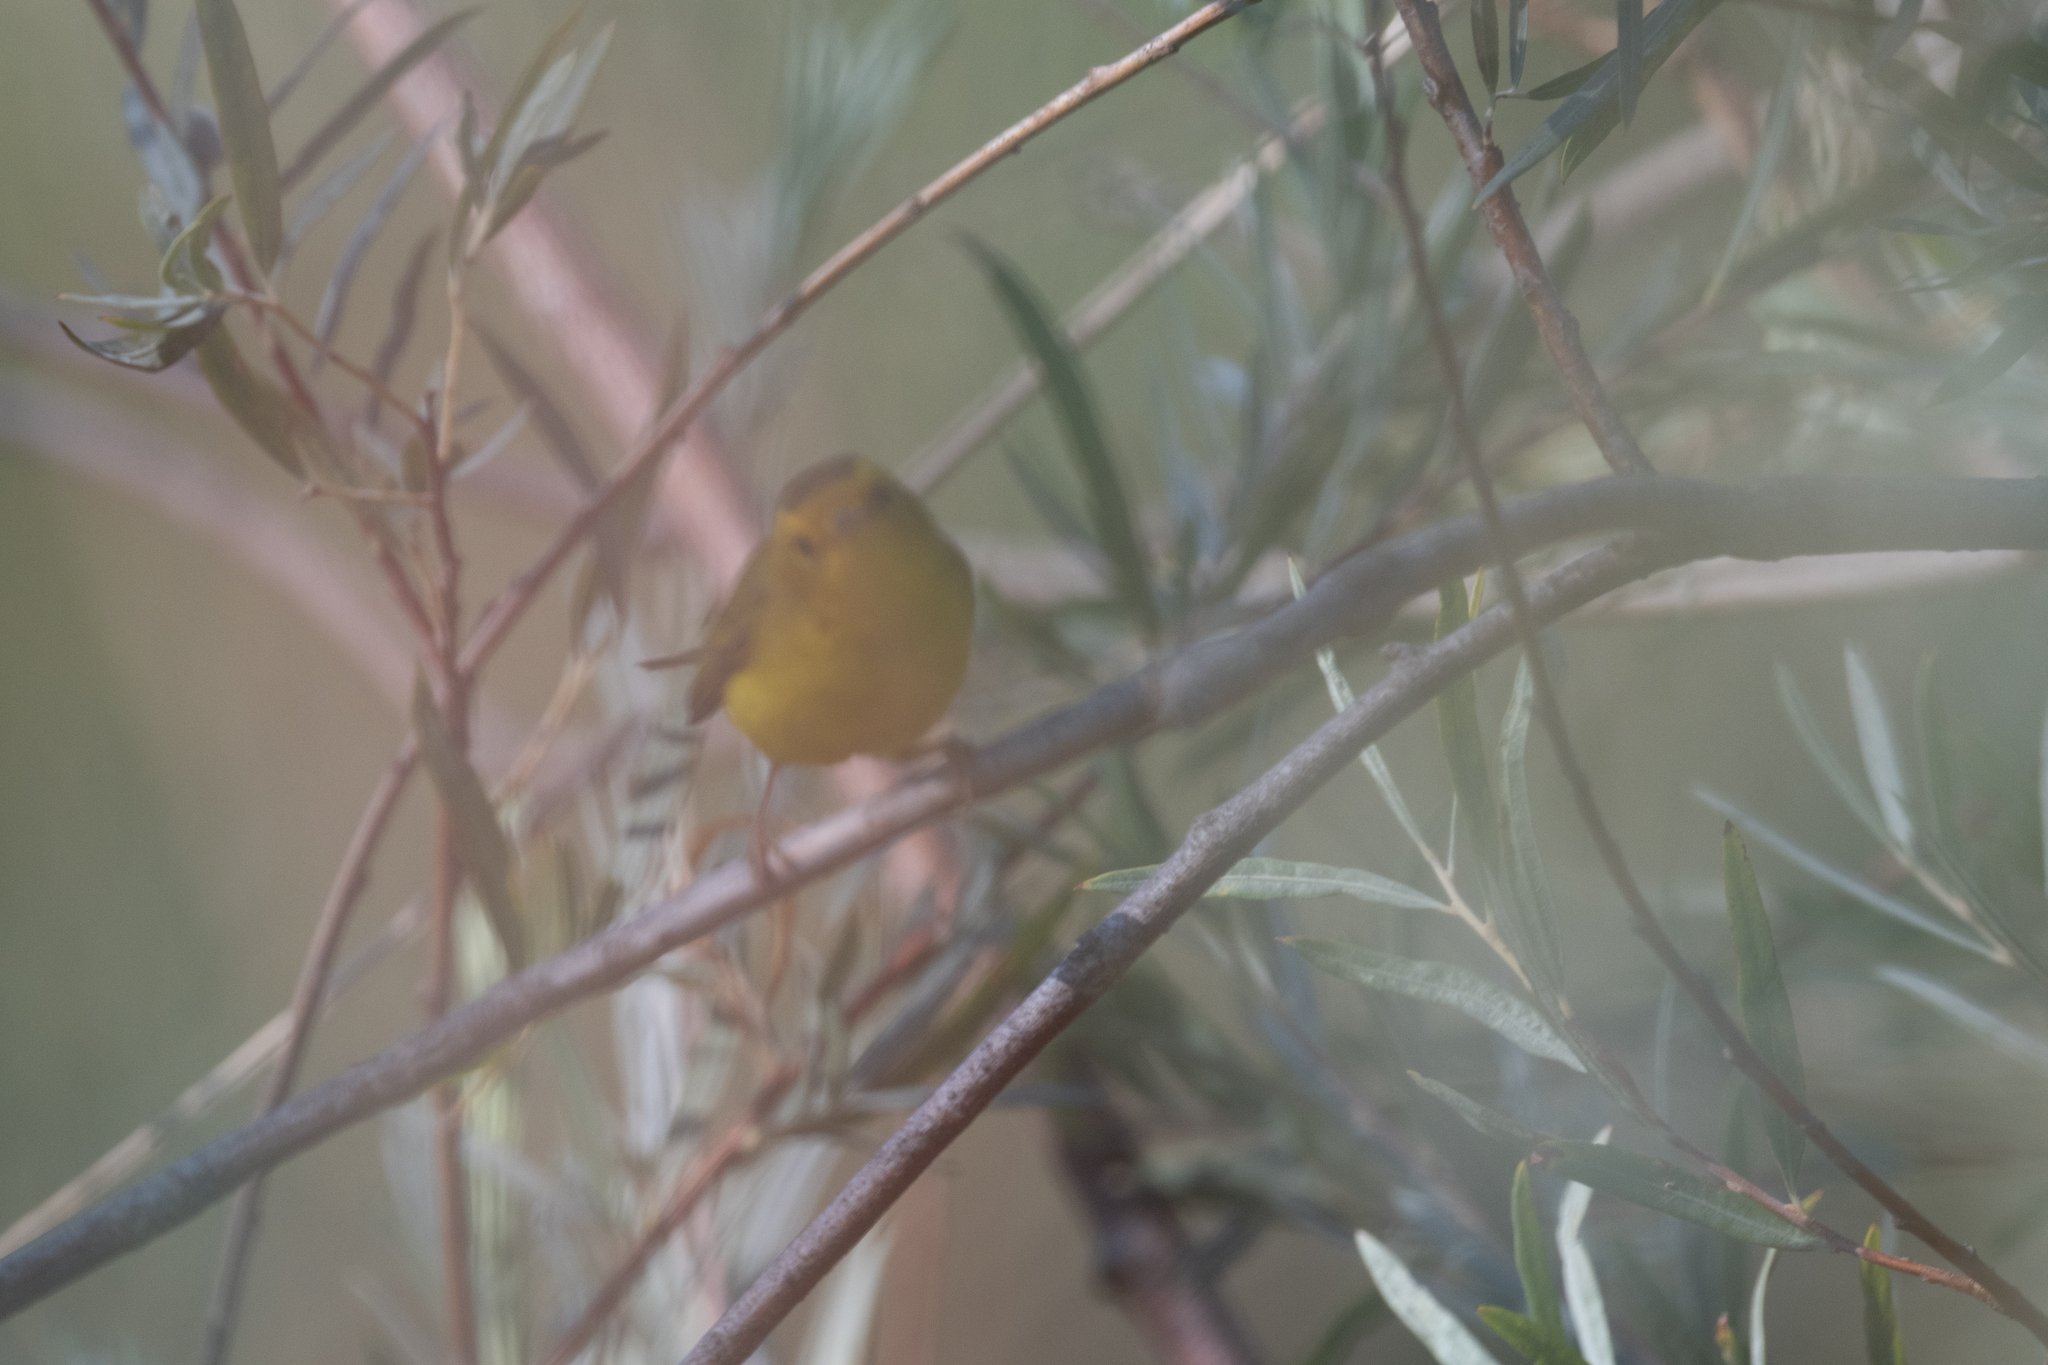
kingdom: Animalia
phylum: Chordata
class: Aves
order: Passeriformes
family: Parulidae
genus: Cardellina
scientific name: Cardellina pusilla
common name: Wilson's warbler
